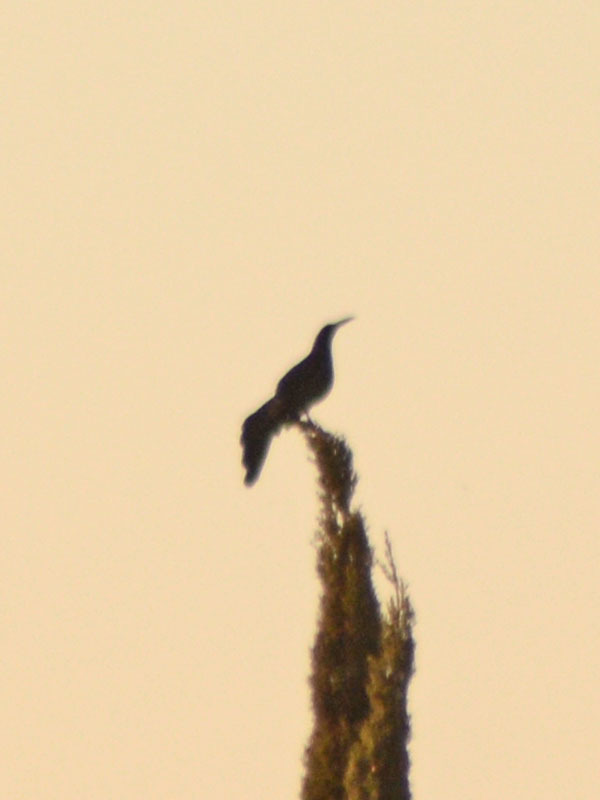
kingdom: Animalia
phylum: Chordata
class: Aves
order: Passeriformes
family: Icteridae
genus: Quiscalus
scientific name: Quiscalus mexicanus
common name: Great-tailed grackle
